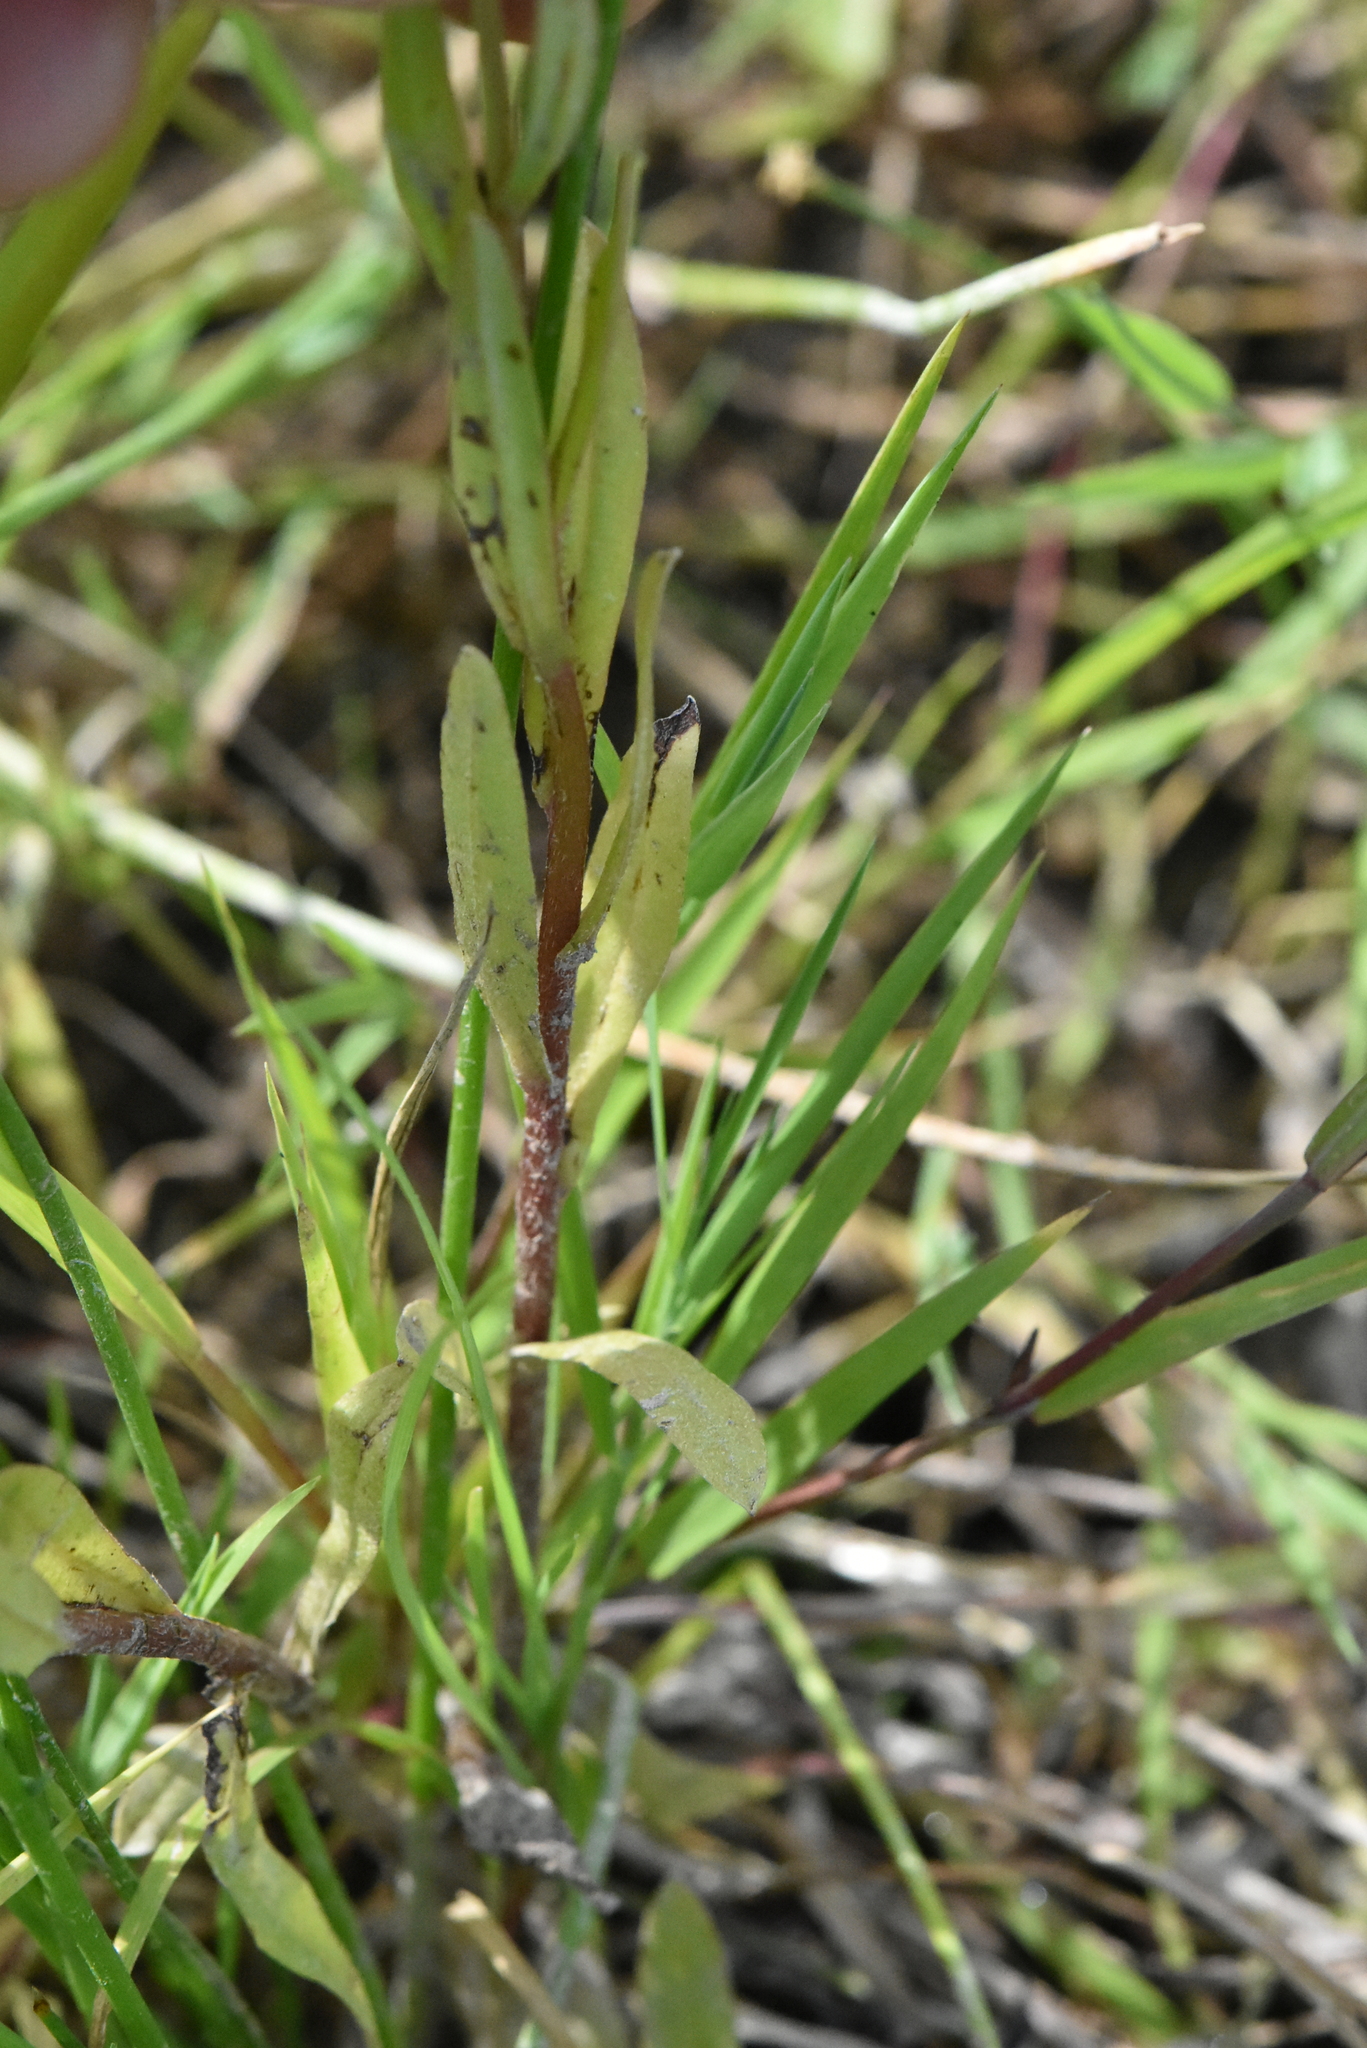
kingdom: Plantae
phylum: Tracheophyta
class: Magnoliopsida
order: Boraginales
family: Boraginaceae
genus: Myosotis
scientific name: Myosotis scorpioides
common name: Water forget-me-not
